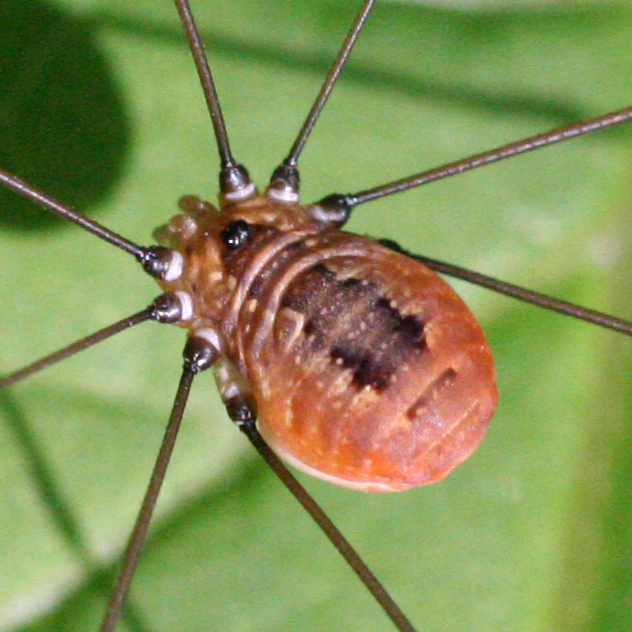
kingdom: Animalia
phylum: Arthropoda
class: Arachnida
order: Opiliones
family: Sclerosomatidae
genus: Leiobunum
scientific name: Leiobunum aldrichi
